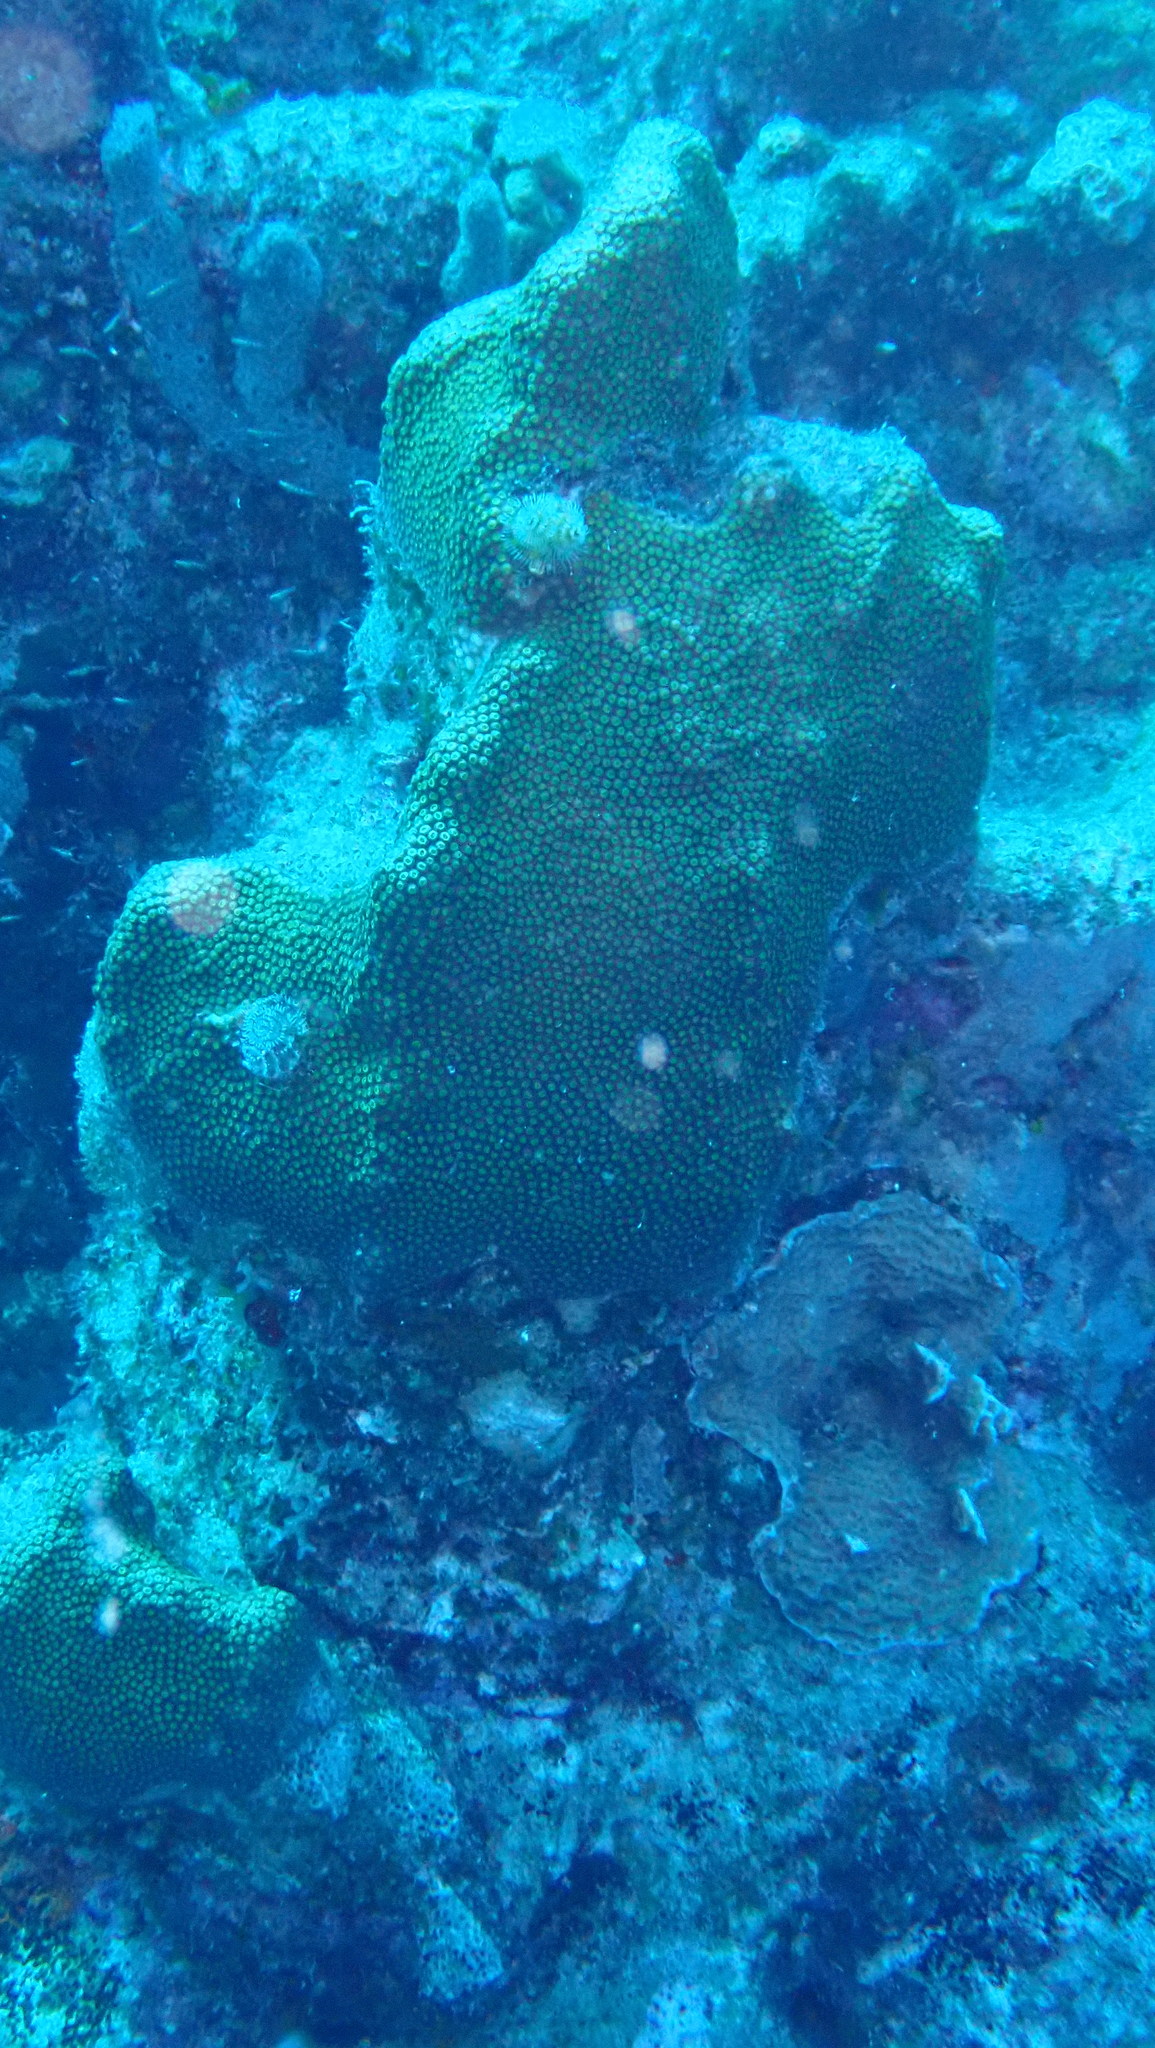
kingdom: Animalia
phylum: Cnidaria
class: Anthozoa
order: Scleractinia
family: Merulinidae
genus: Orbicella
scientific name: Orbicella faveolata
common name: Mountainous star coral
